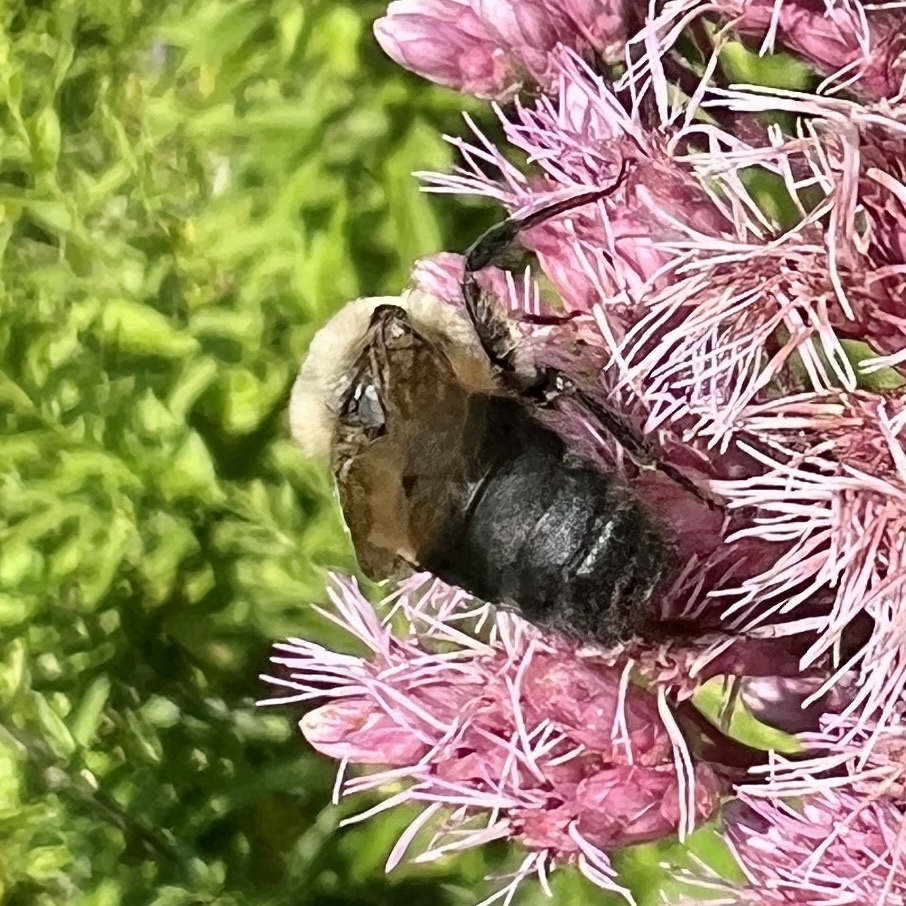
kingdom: Animalia
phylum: Arthropoda
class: Insecta
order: Hymenoptera
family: Apidae
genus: Bombus
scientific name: Bombus griseocollis
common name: Brown-belted bumble bee
